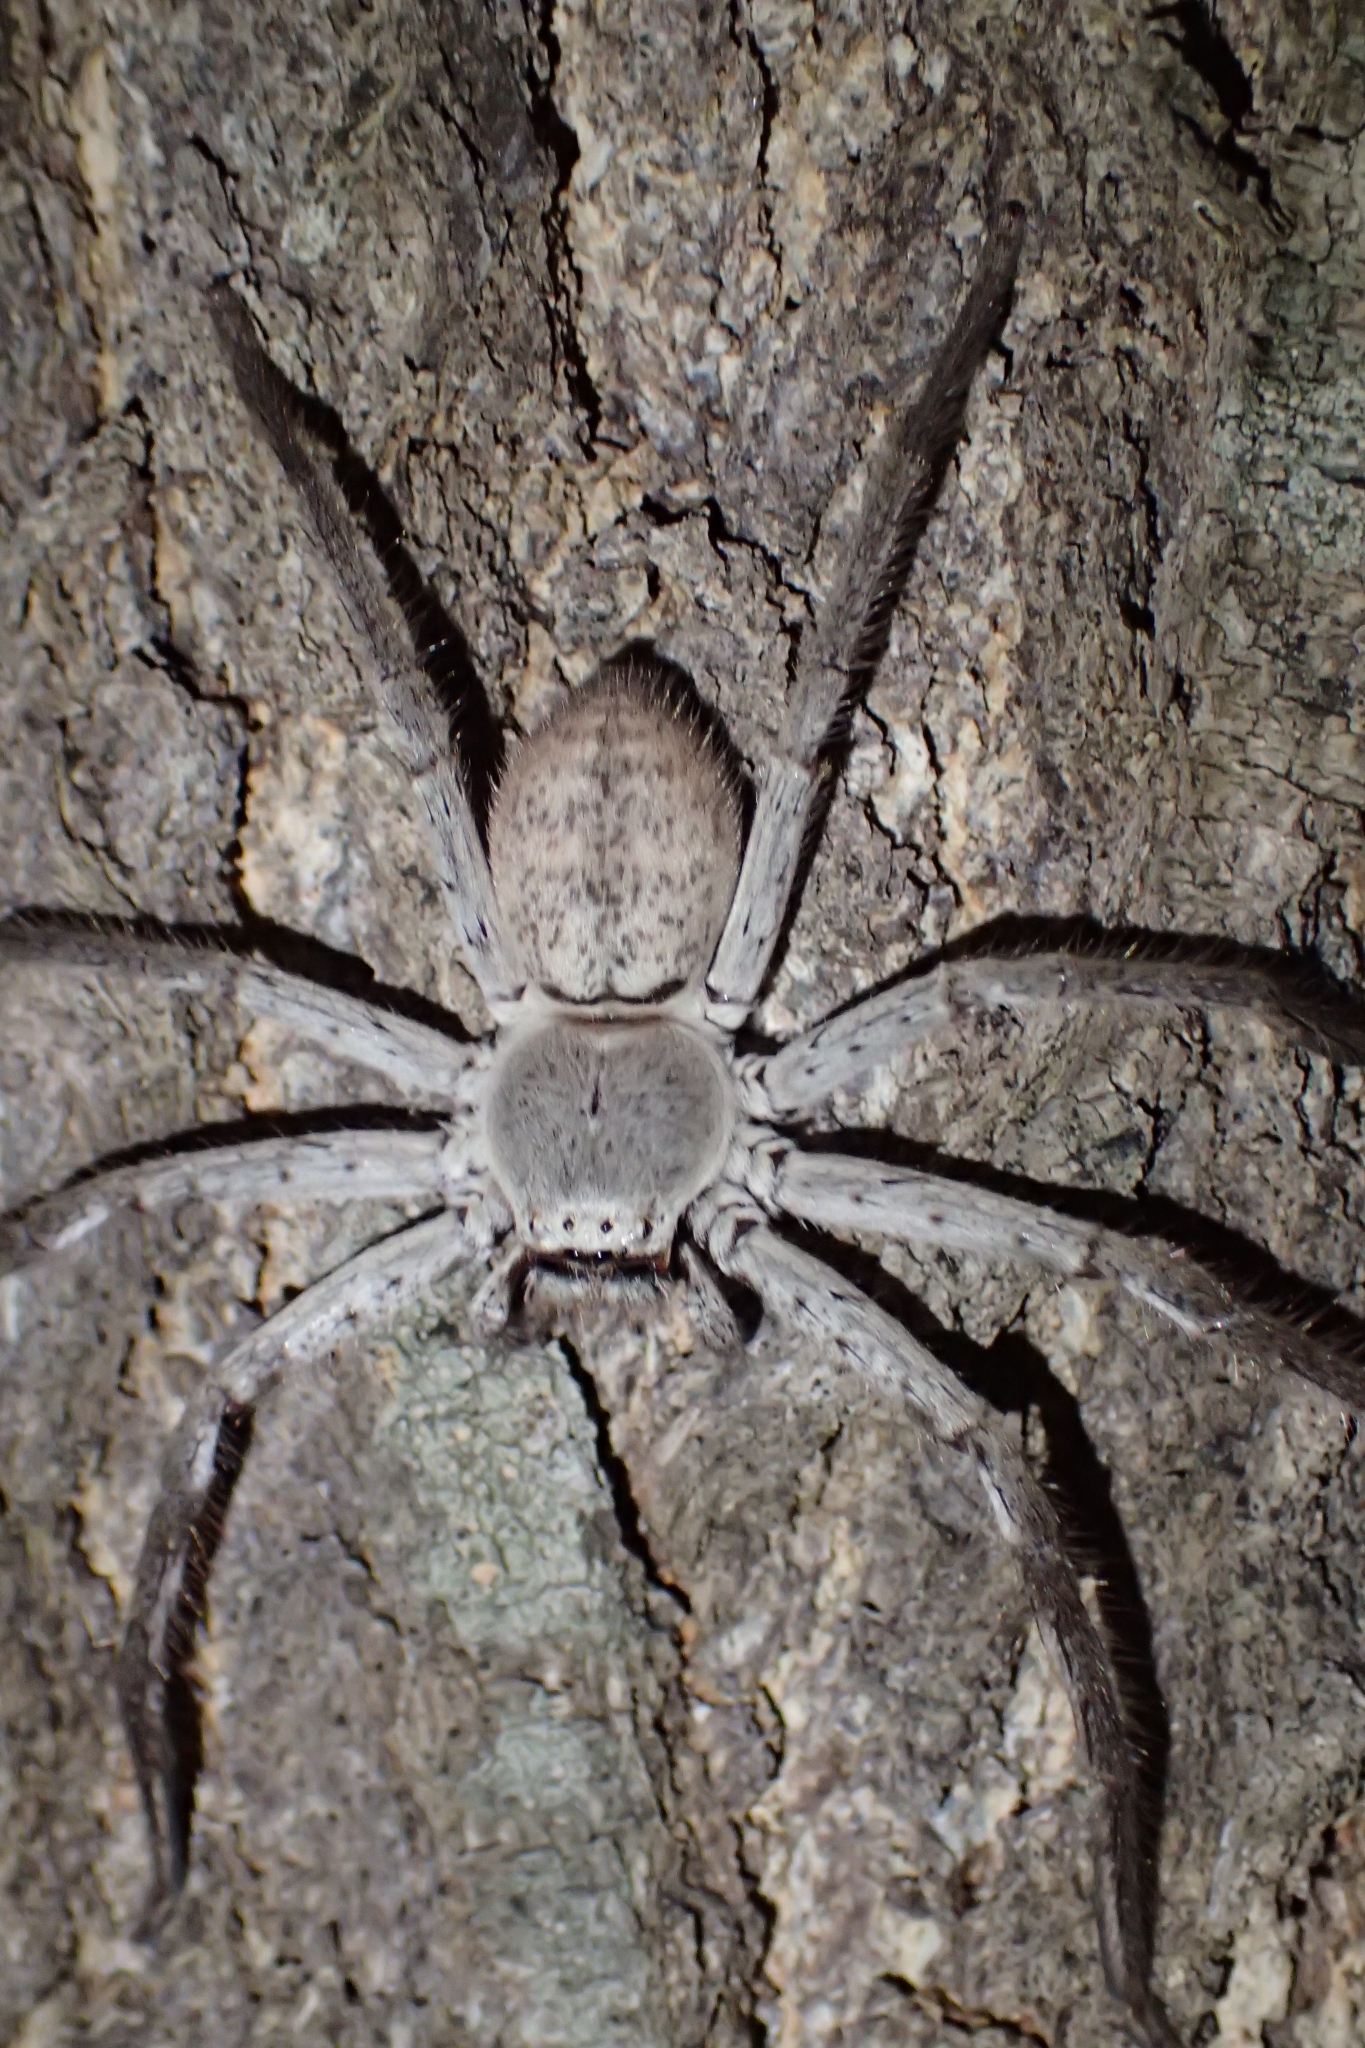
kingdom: Animalia
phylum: Arthropoda
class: Arachnida
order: Araneae
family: Sparassidae
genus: Isopedella
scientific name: Isopedella conspersa
